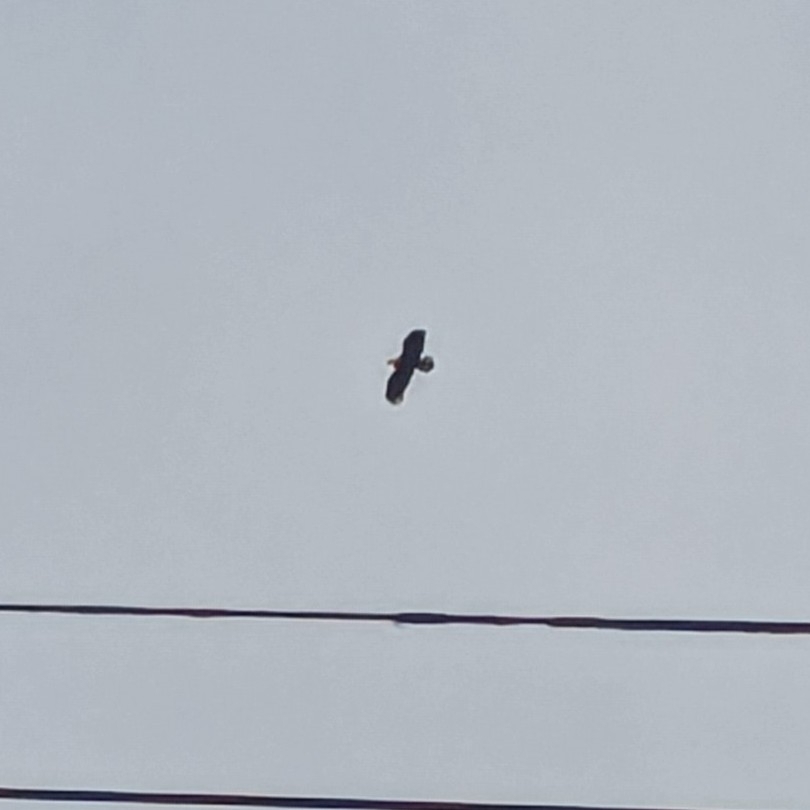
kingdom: Animalia
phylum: Chordata
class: Aves
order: Accipitriformes
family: Accipitridae
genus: Haliaeetus
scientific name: Haliaeetus leucocephalus
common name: Bald eagle
